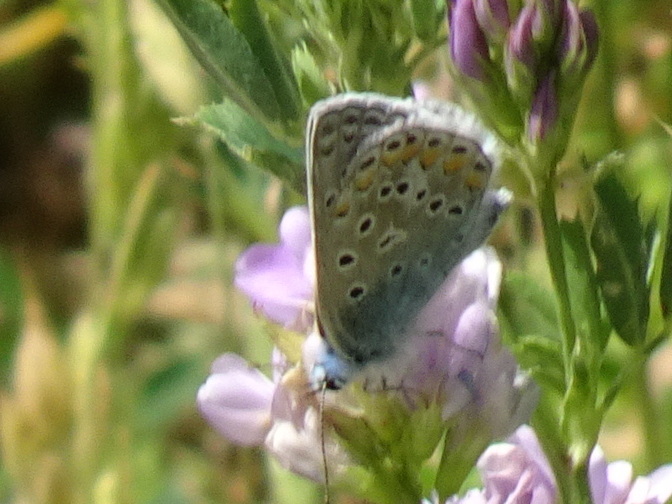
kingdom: Animalia
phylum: Arthropoda
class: Insecta
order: Lepidoptera
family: Lycaenidae
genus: Polyommatus
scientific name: Polyommatus icarus
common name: Common blue
